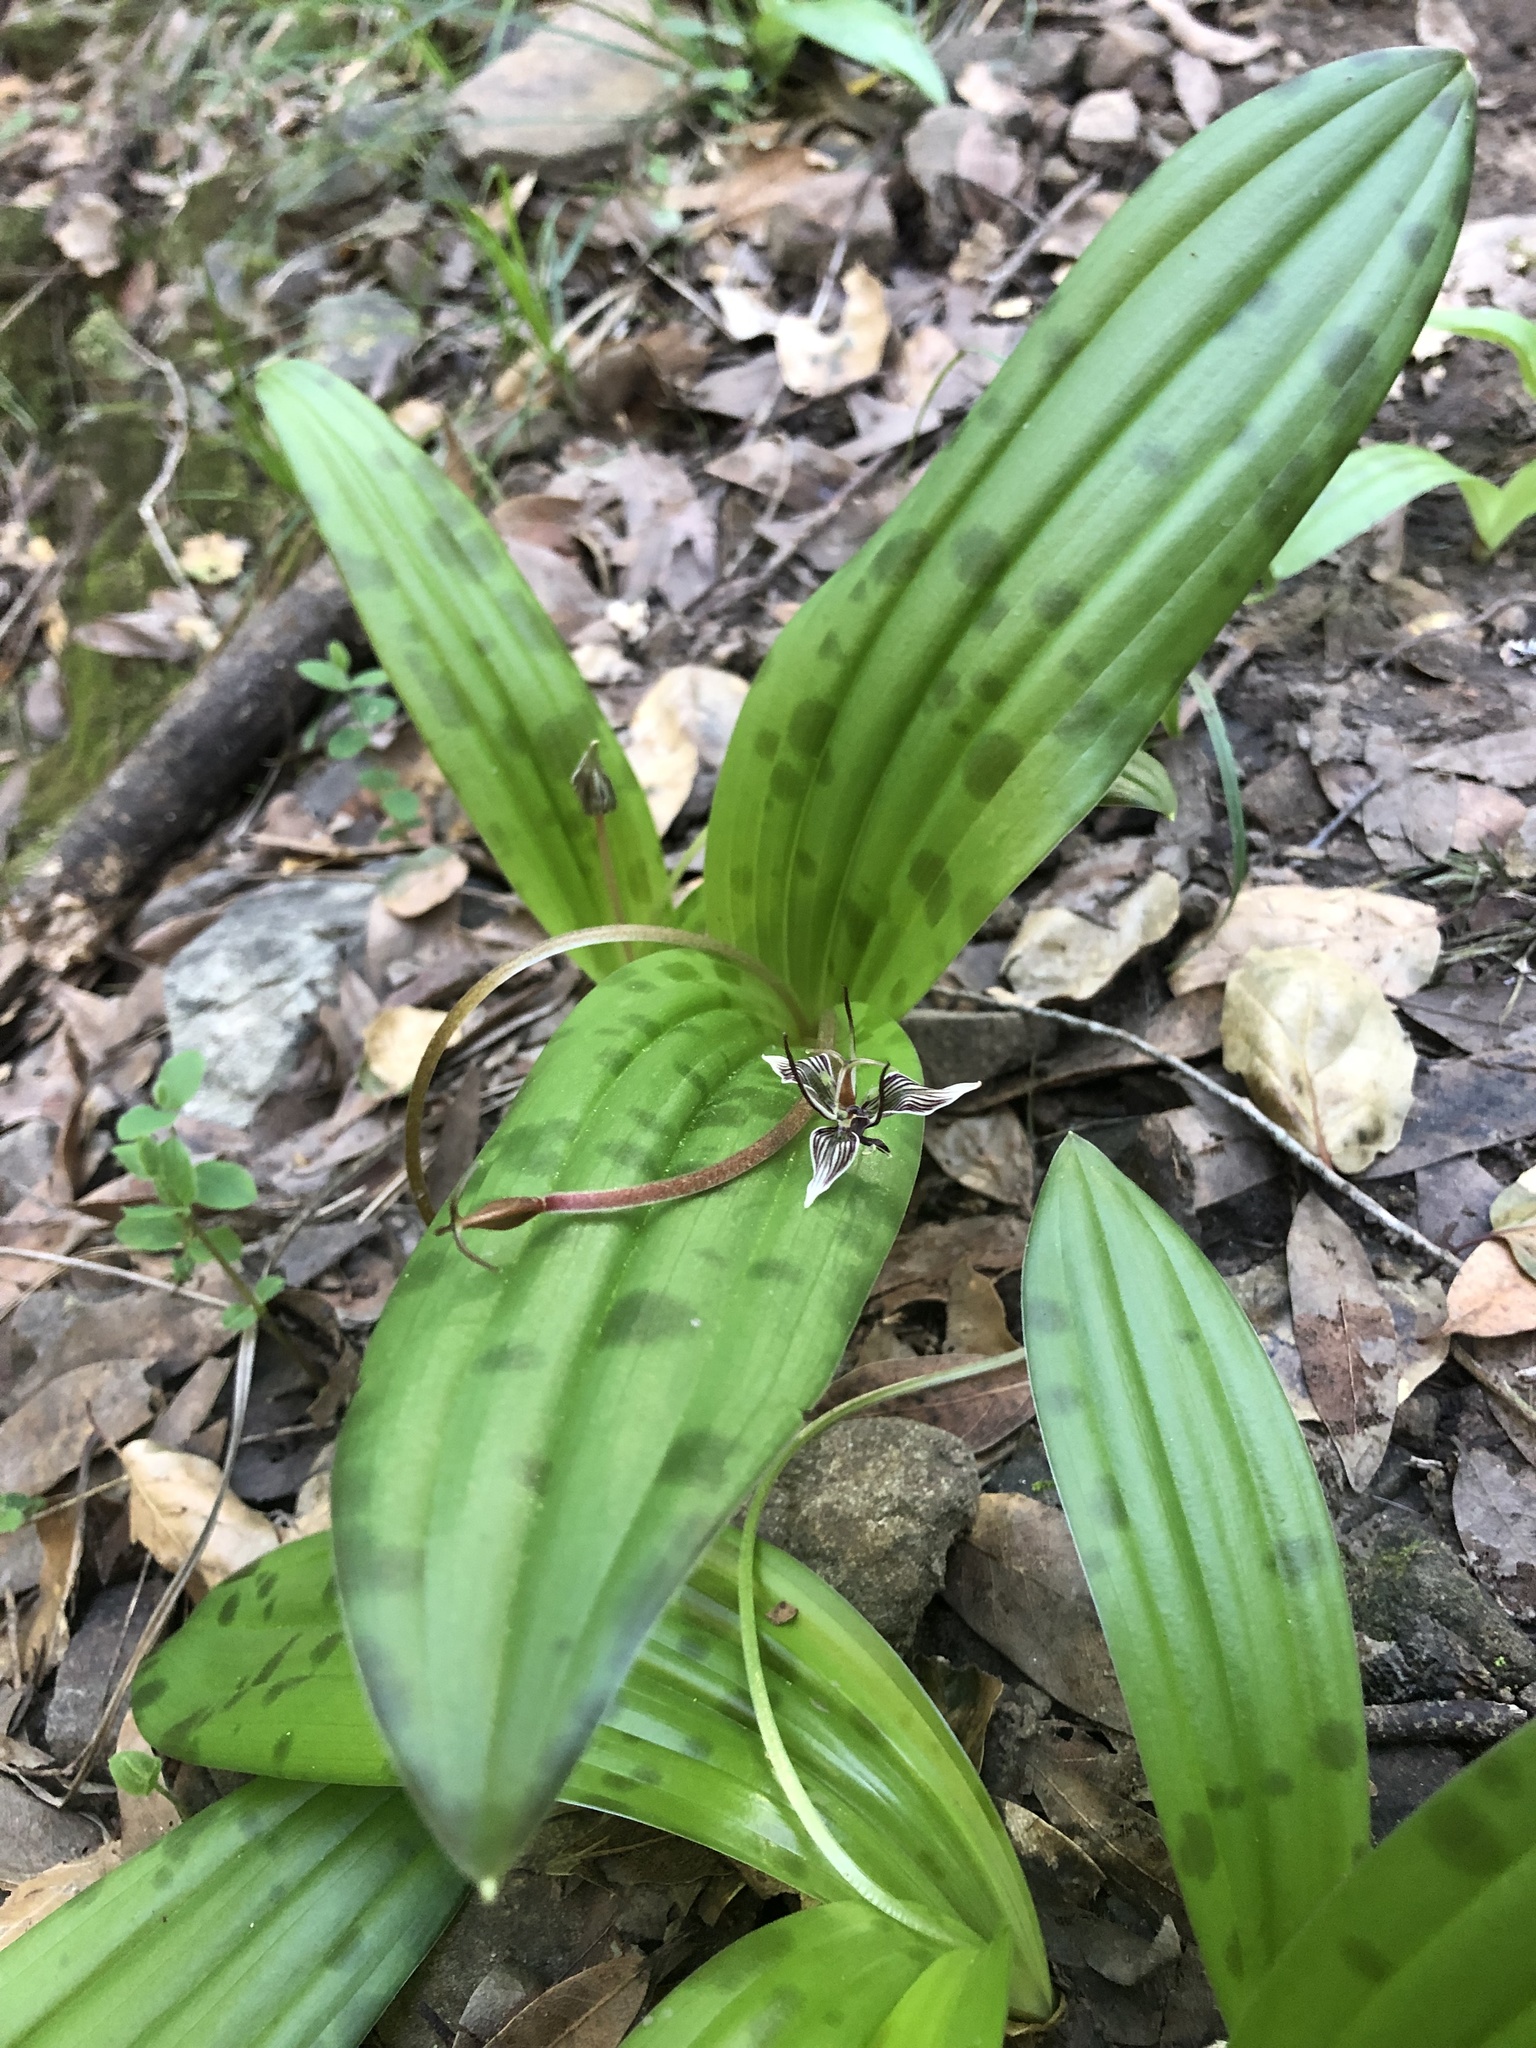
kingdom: Plantae
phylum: Tracheophyta
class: Liliopsida
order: Liliales
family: Liliaceae
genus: Scoliopus
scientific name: Scoliopus bigelovii
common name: Foetid adder's-tongue
